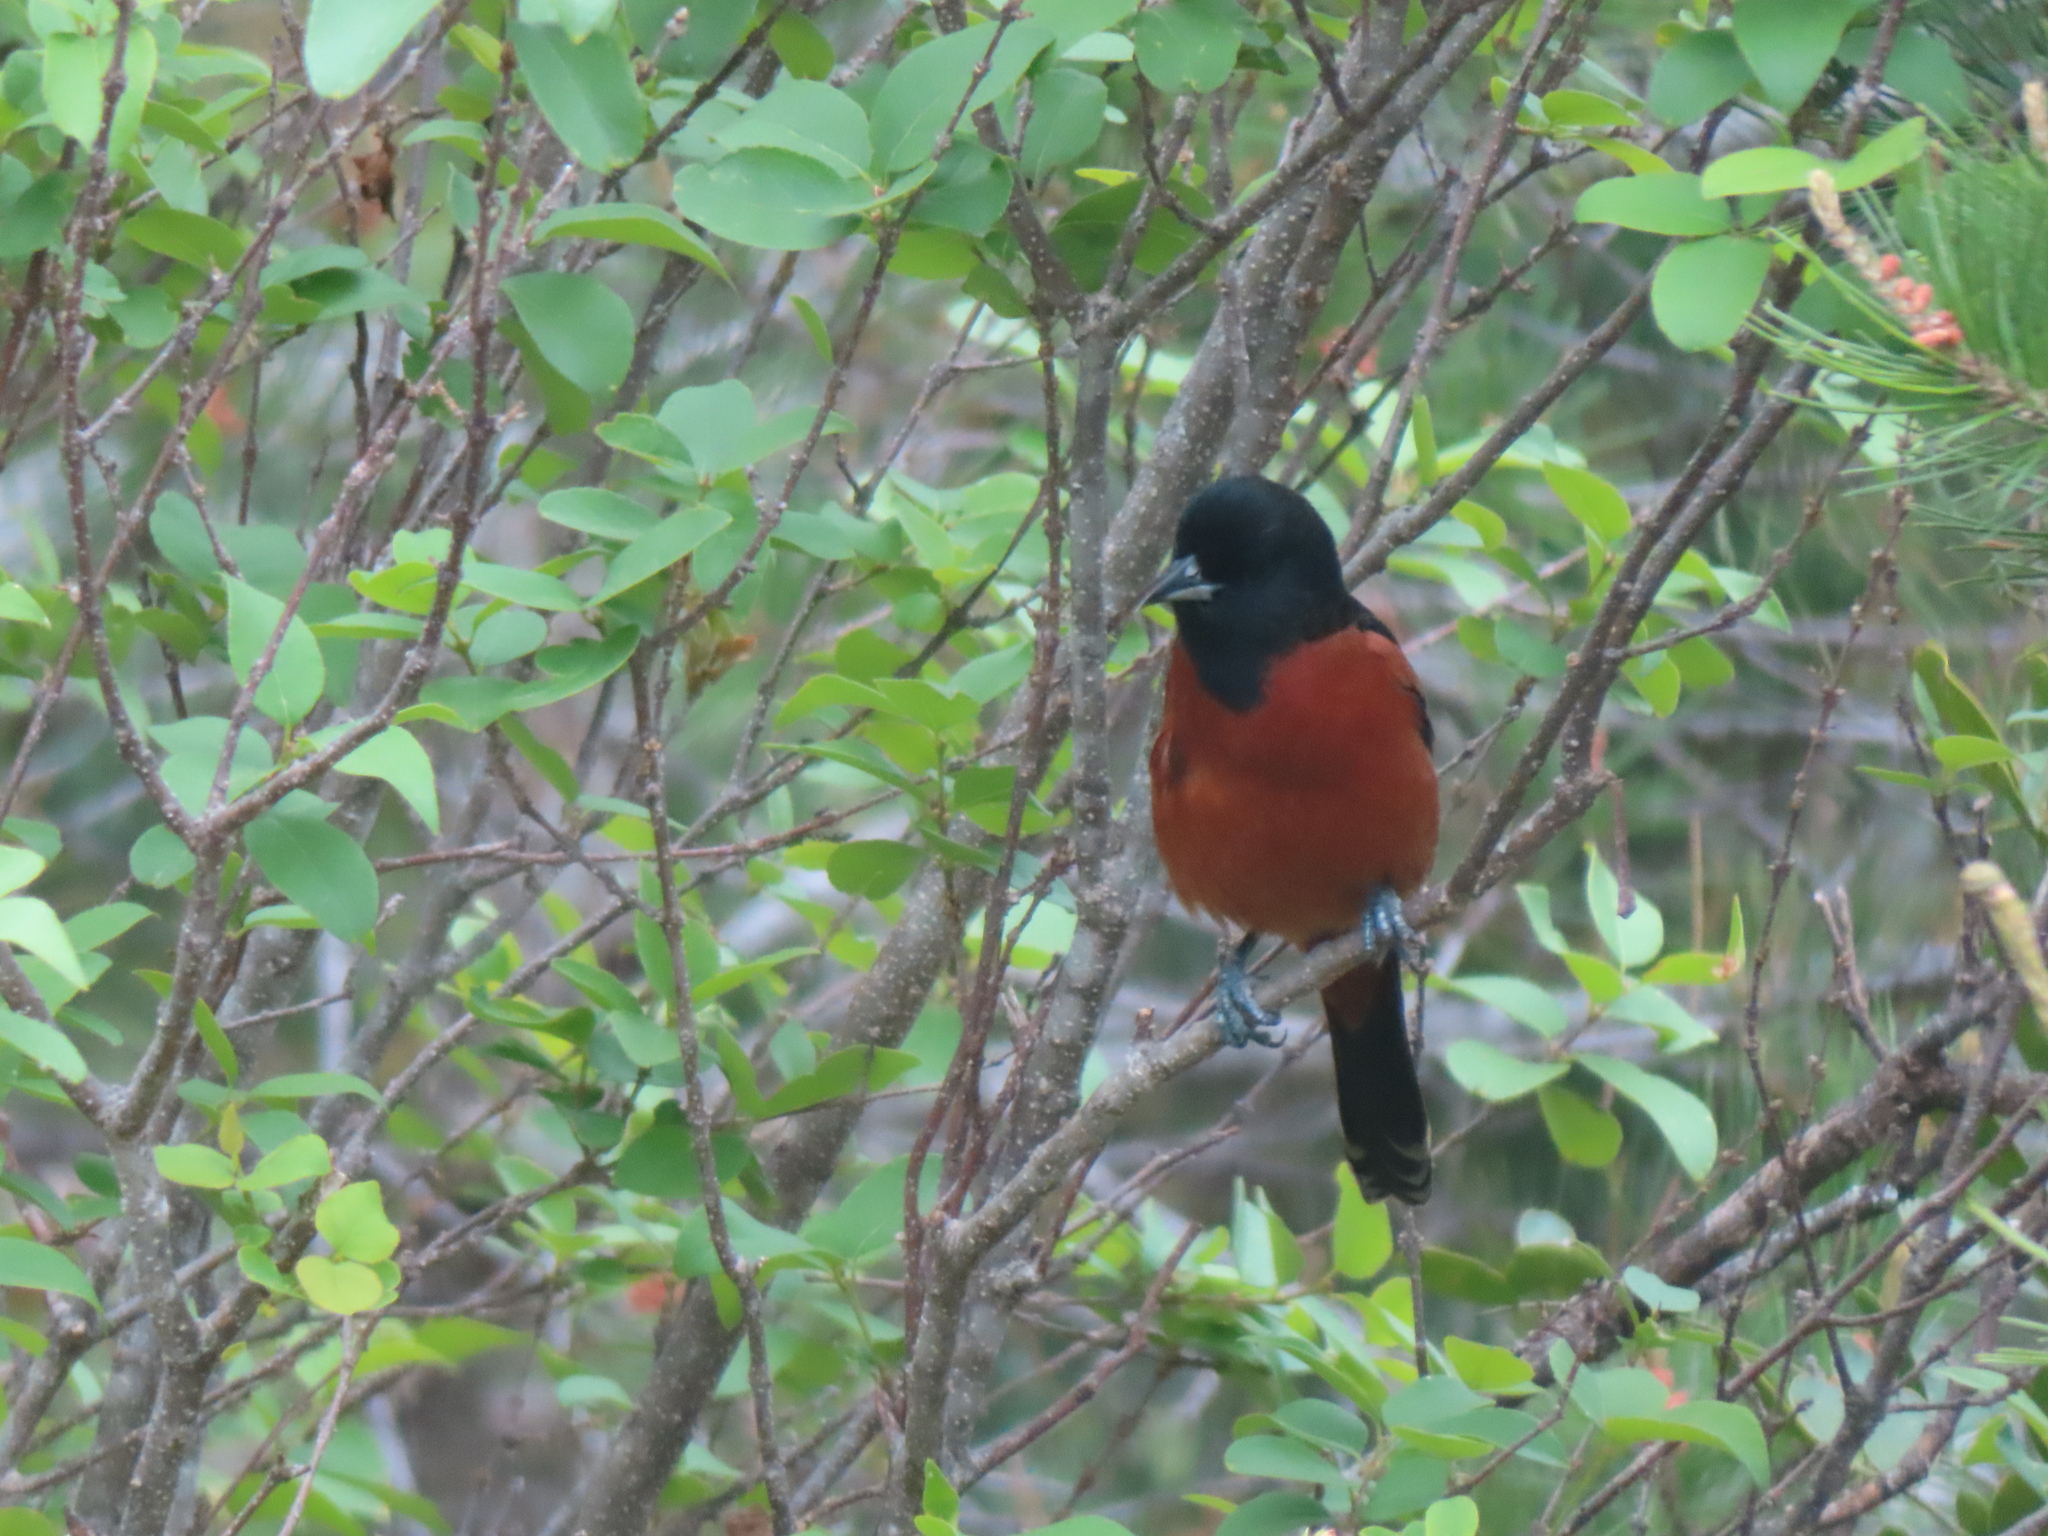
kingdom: Animalia
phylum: Chordata
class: Aves
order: Passeriformes
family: Icteridae
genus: Icterus
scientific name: Icterus spurius
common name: Orchard oriole
